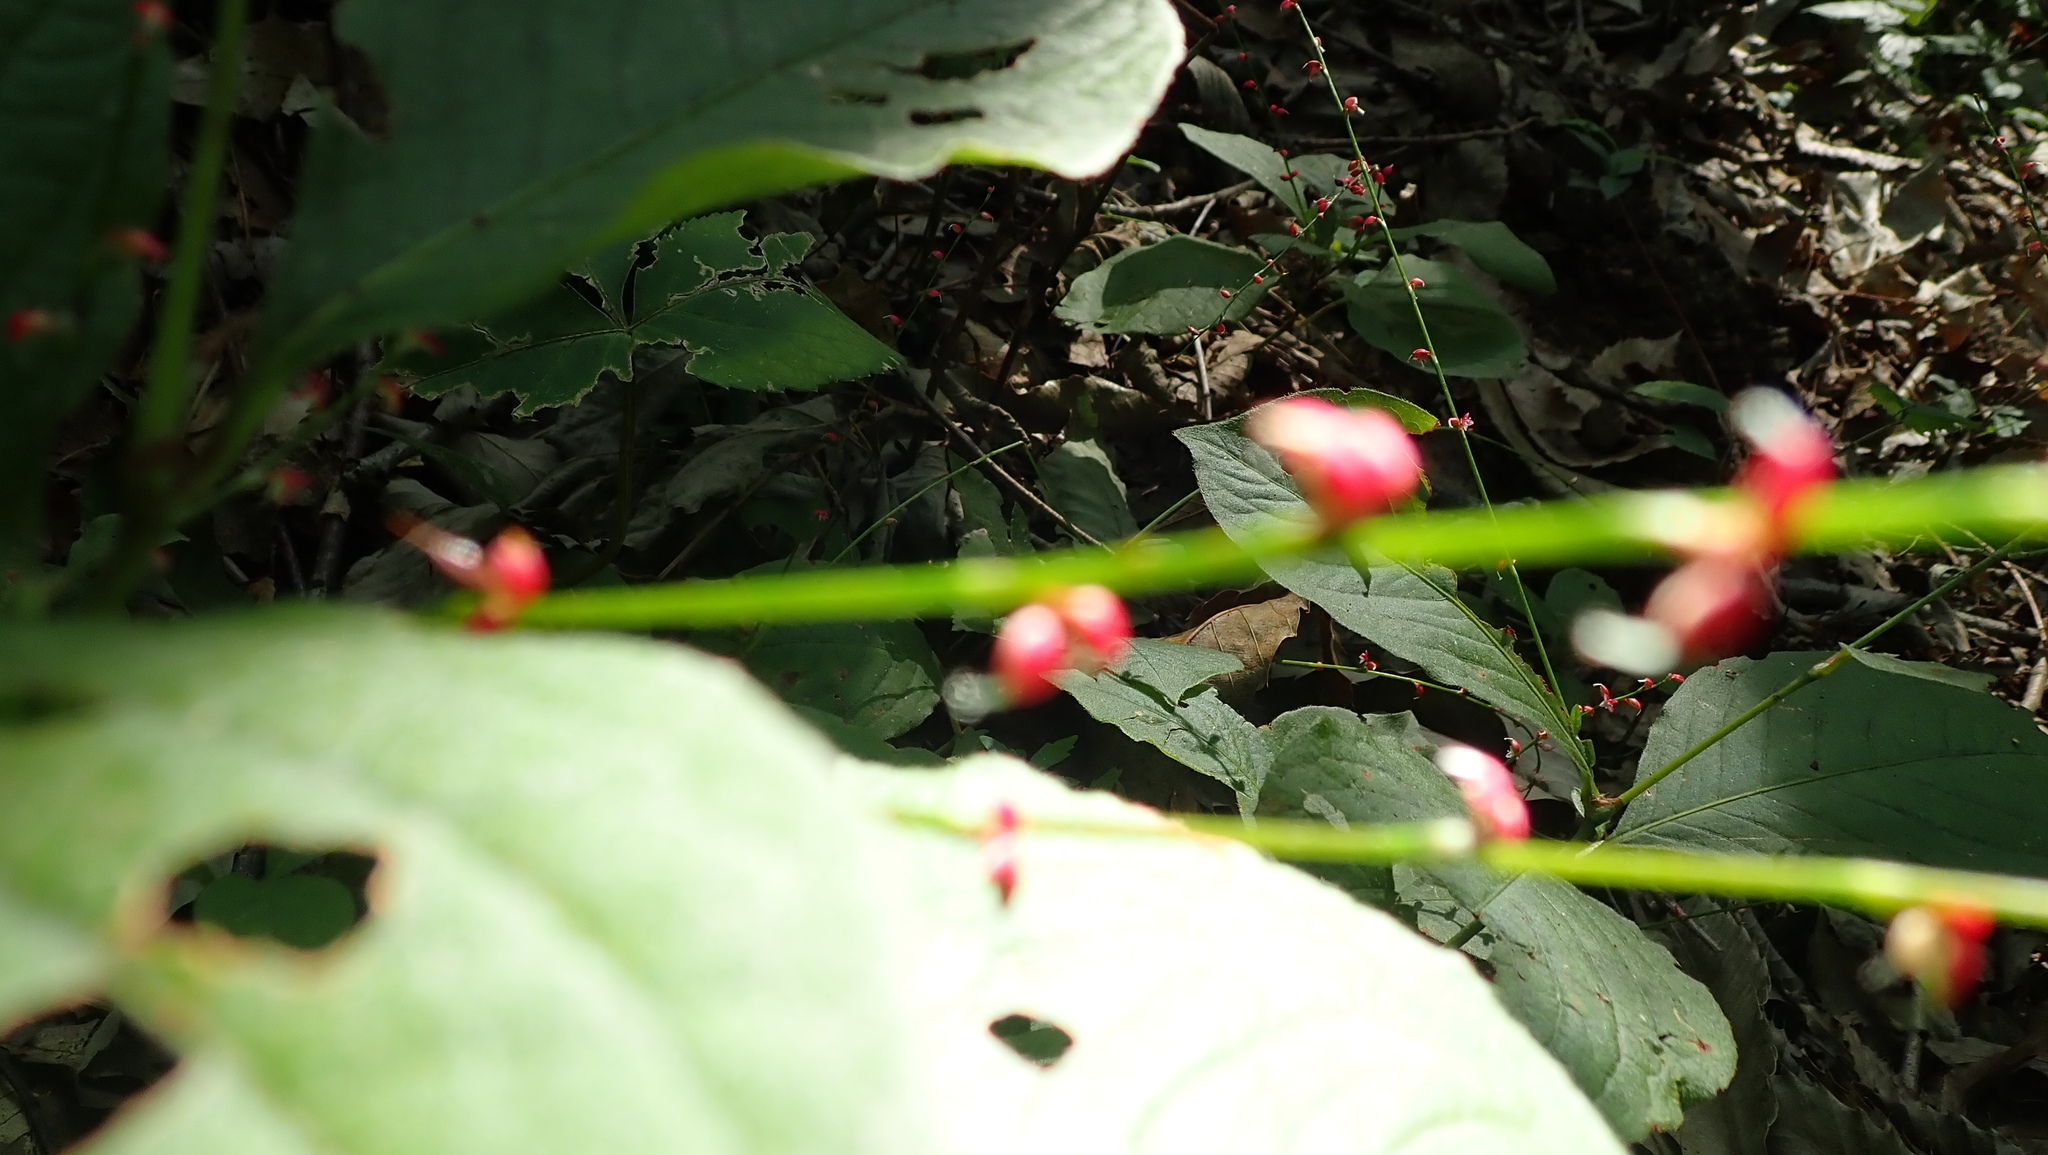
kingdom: Plantae
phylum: Tracheophyta
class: Magnoliopsida
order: Caryophyllales
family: Polygonaceae
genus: Persicaria
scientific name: Persicaria filiformis
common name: Asian jumpseed
